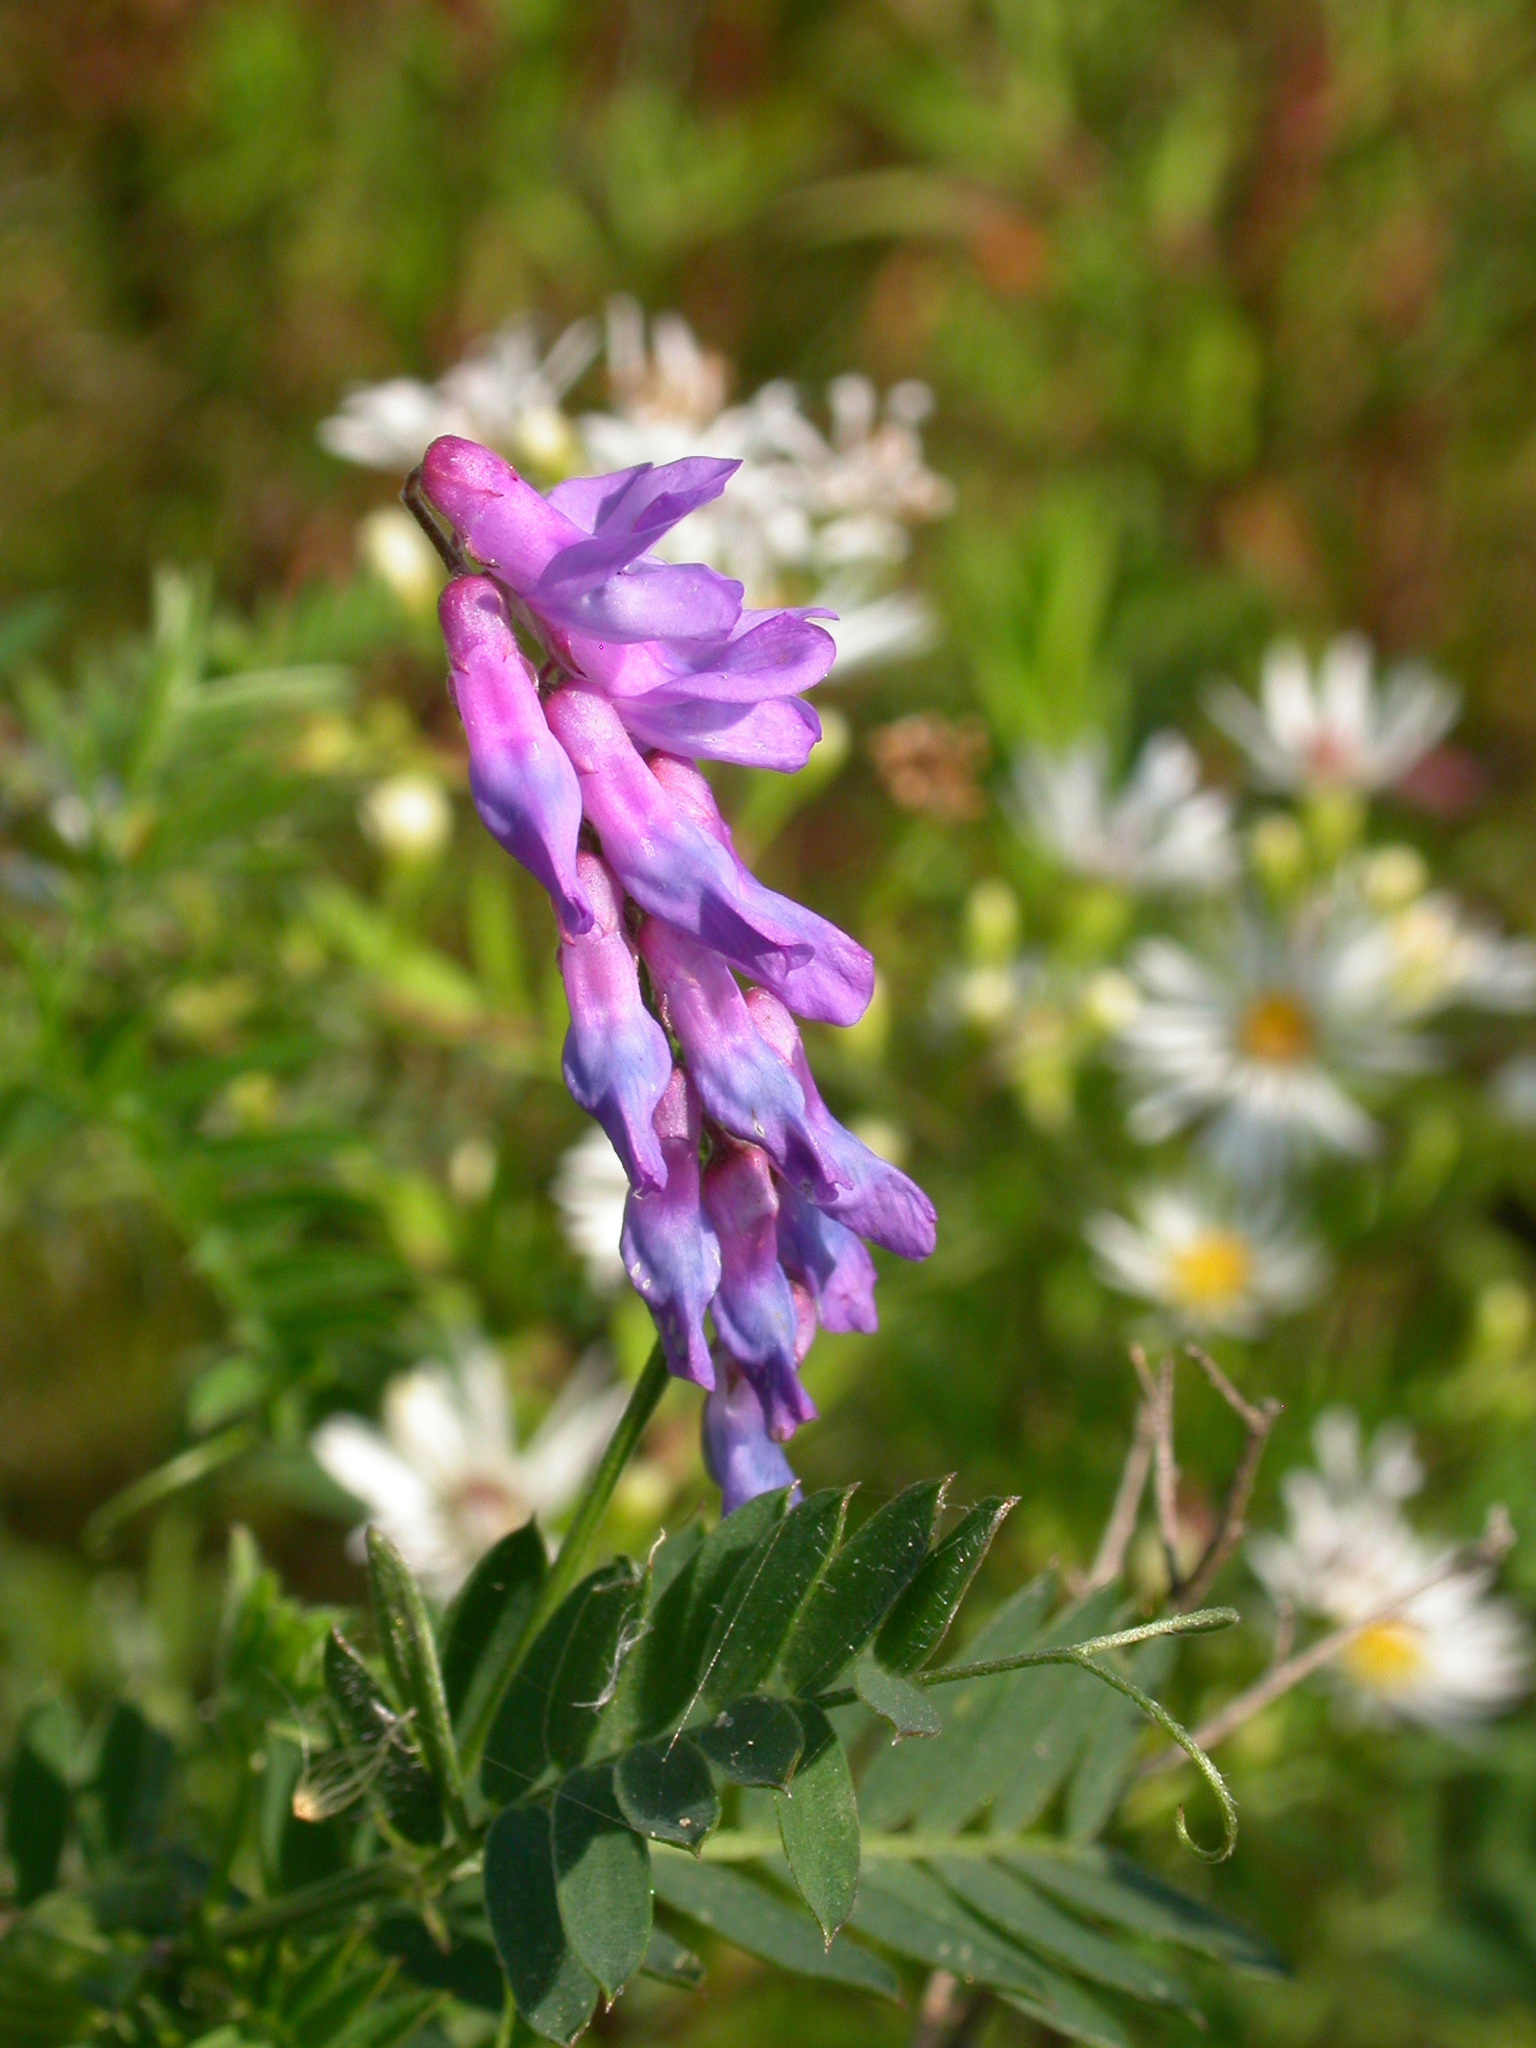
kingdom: Plantae
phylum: Tracheophyta
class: Magnoliopsida
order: Fabales
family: Fabaceae
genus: Vicia
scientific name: Vicia cracca
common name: Bird vetch
